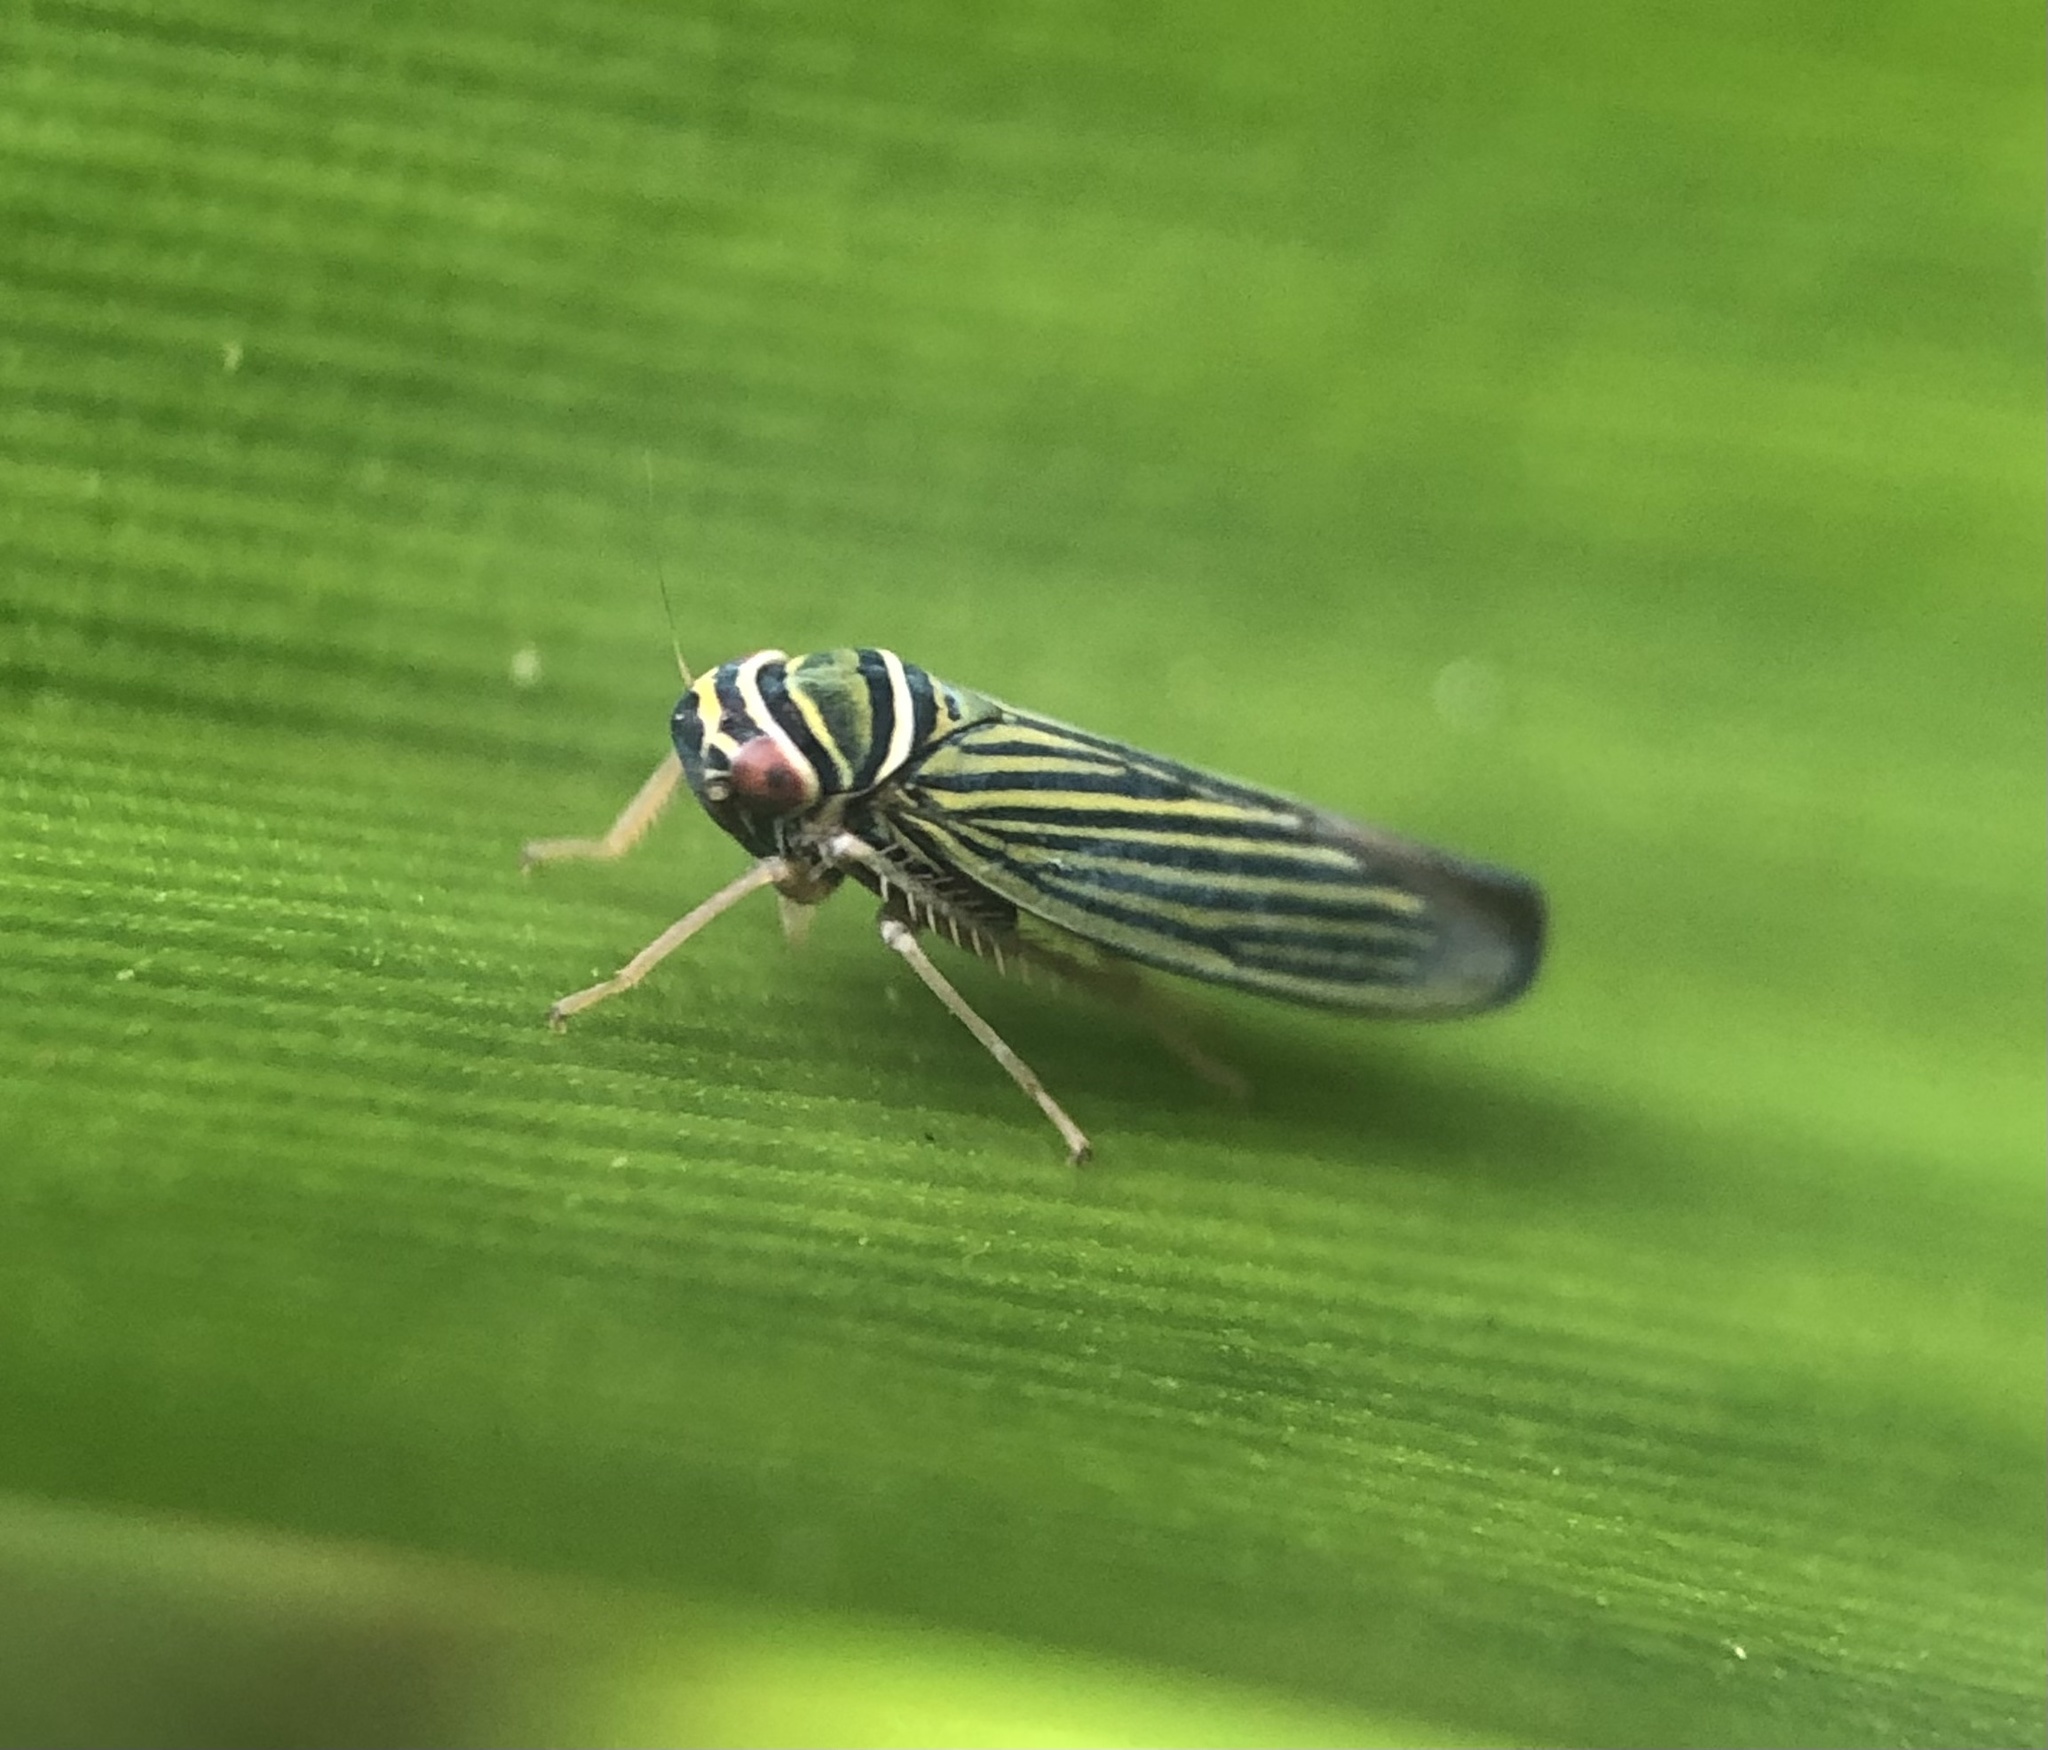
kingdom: Animalia
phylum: Arthropoda
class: Insecta
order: Hemiptera
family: Cicadellidae
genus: Tylozygus
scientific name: Tylozygus bifidus
